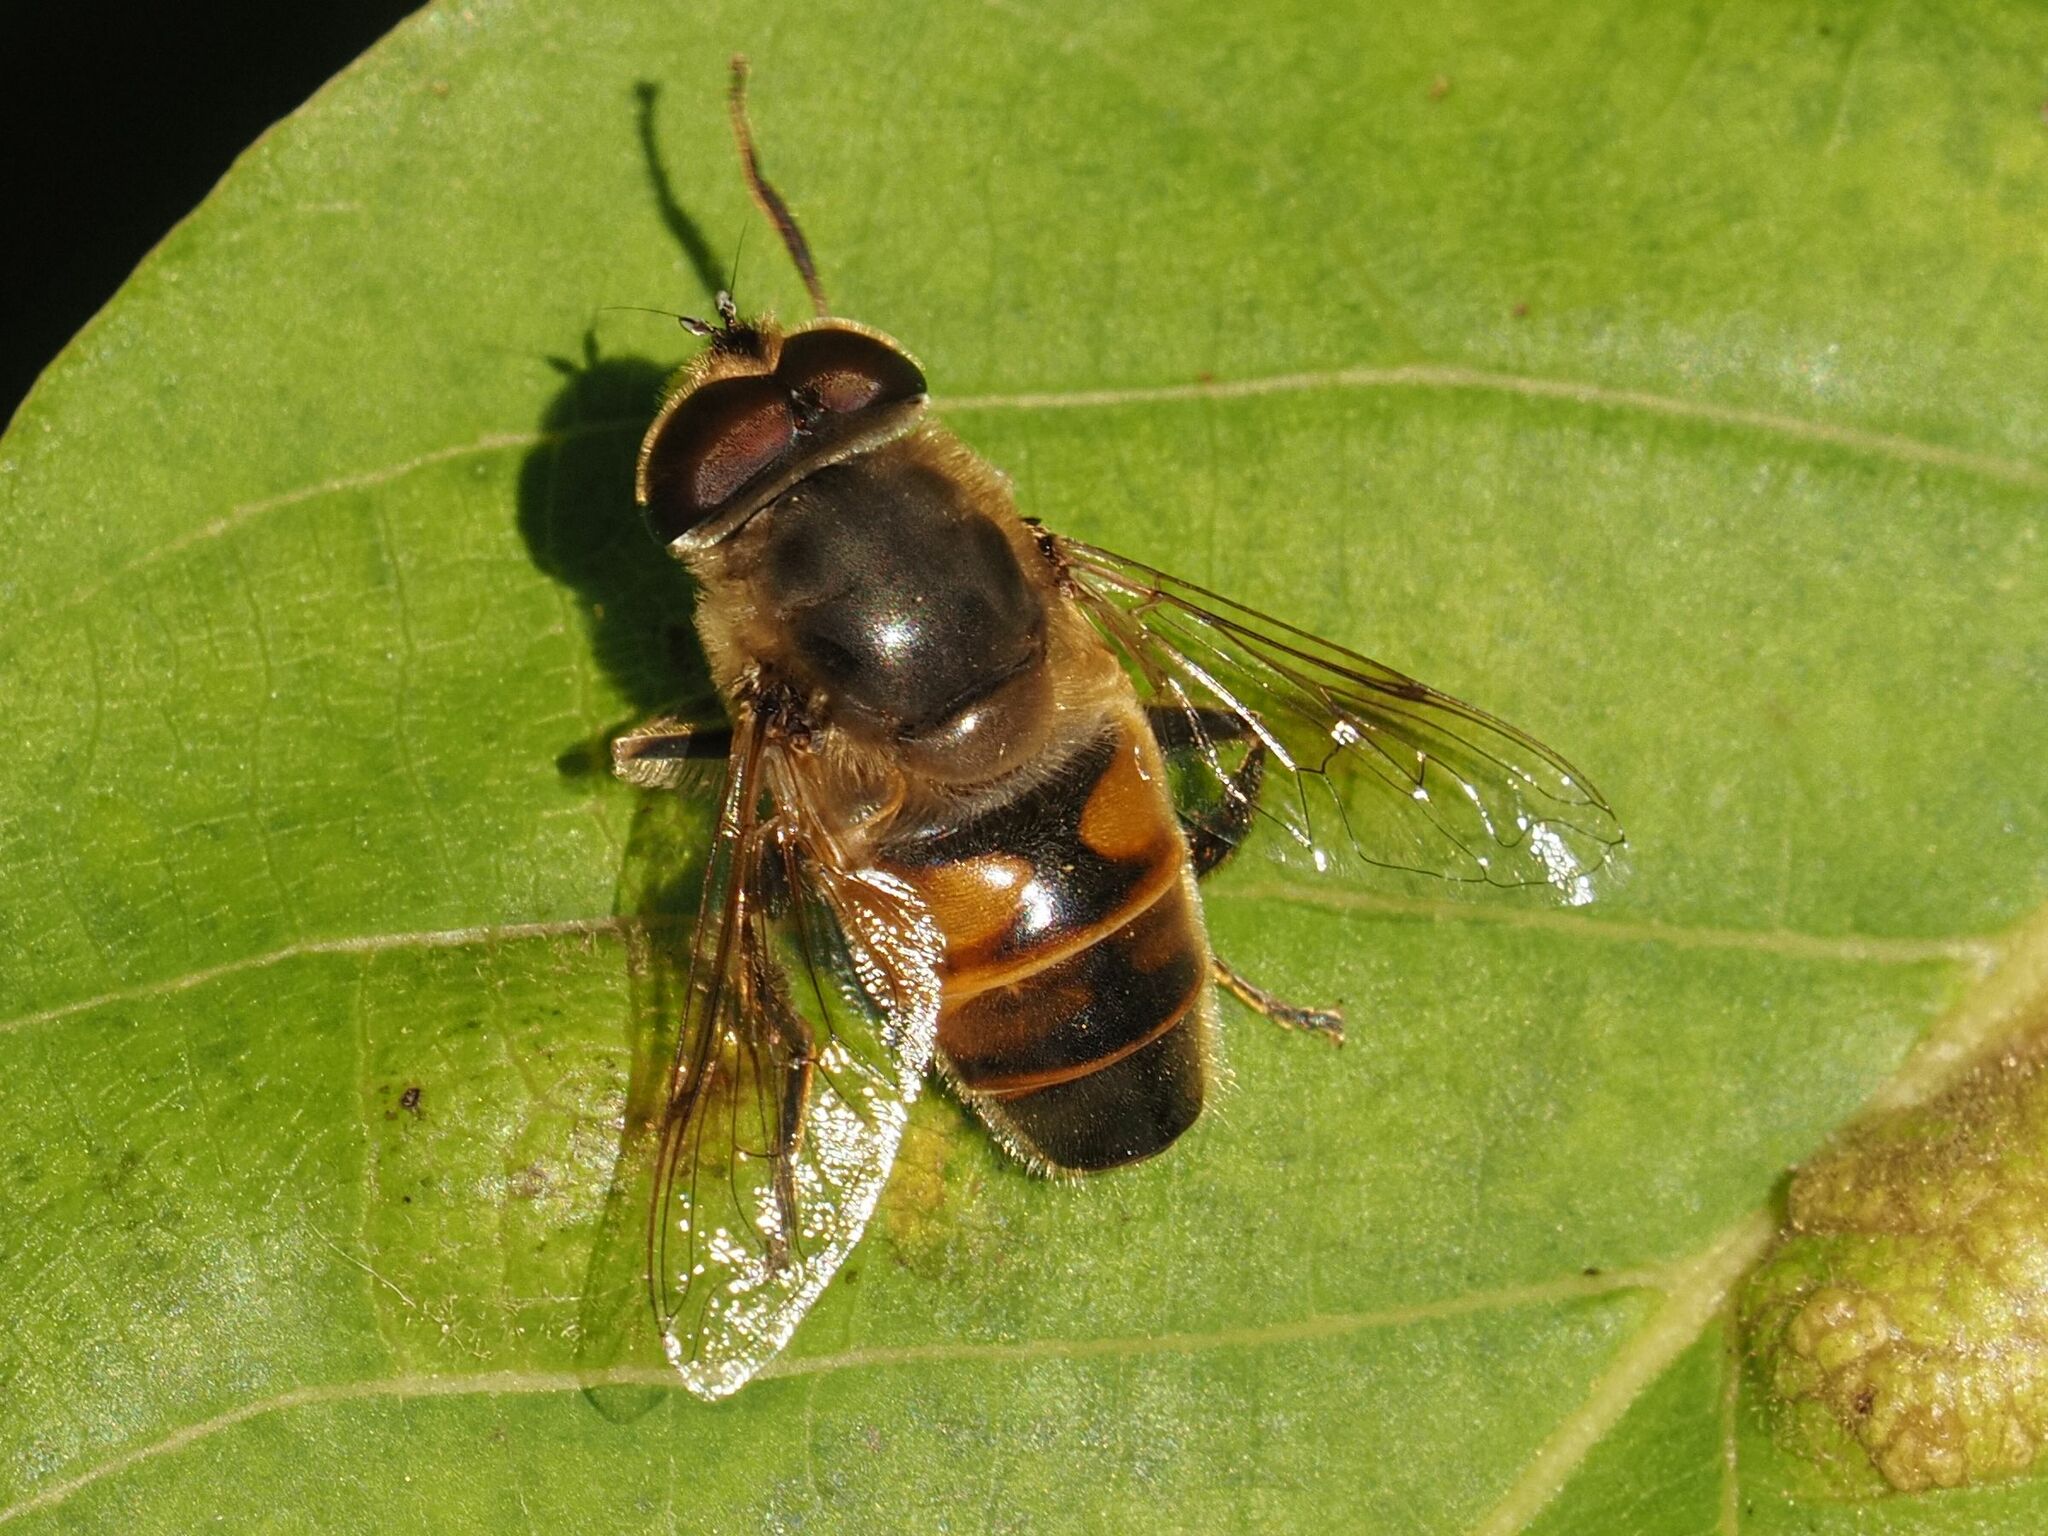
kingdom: Animalia
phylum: Arthropoda
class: Insecta
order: Diptera
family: Syrphidae
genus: Eristalis
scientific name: Eristalis tenax
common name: Drone fly
